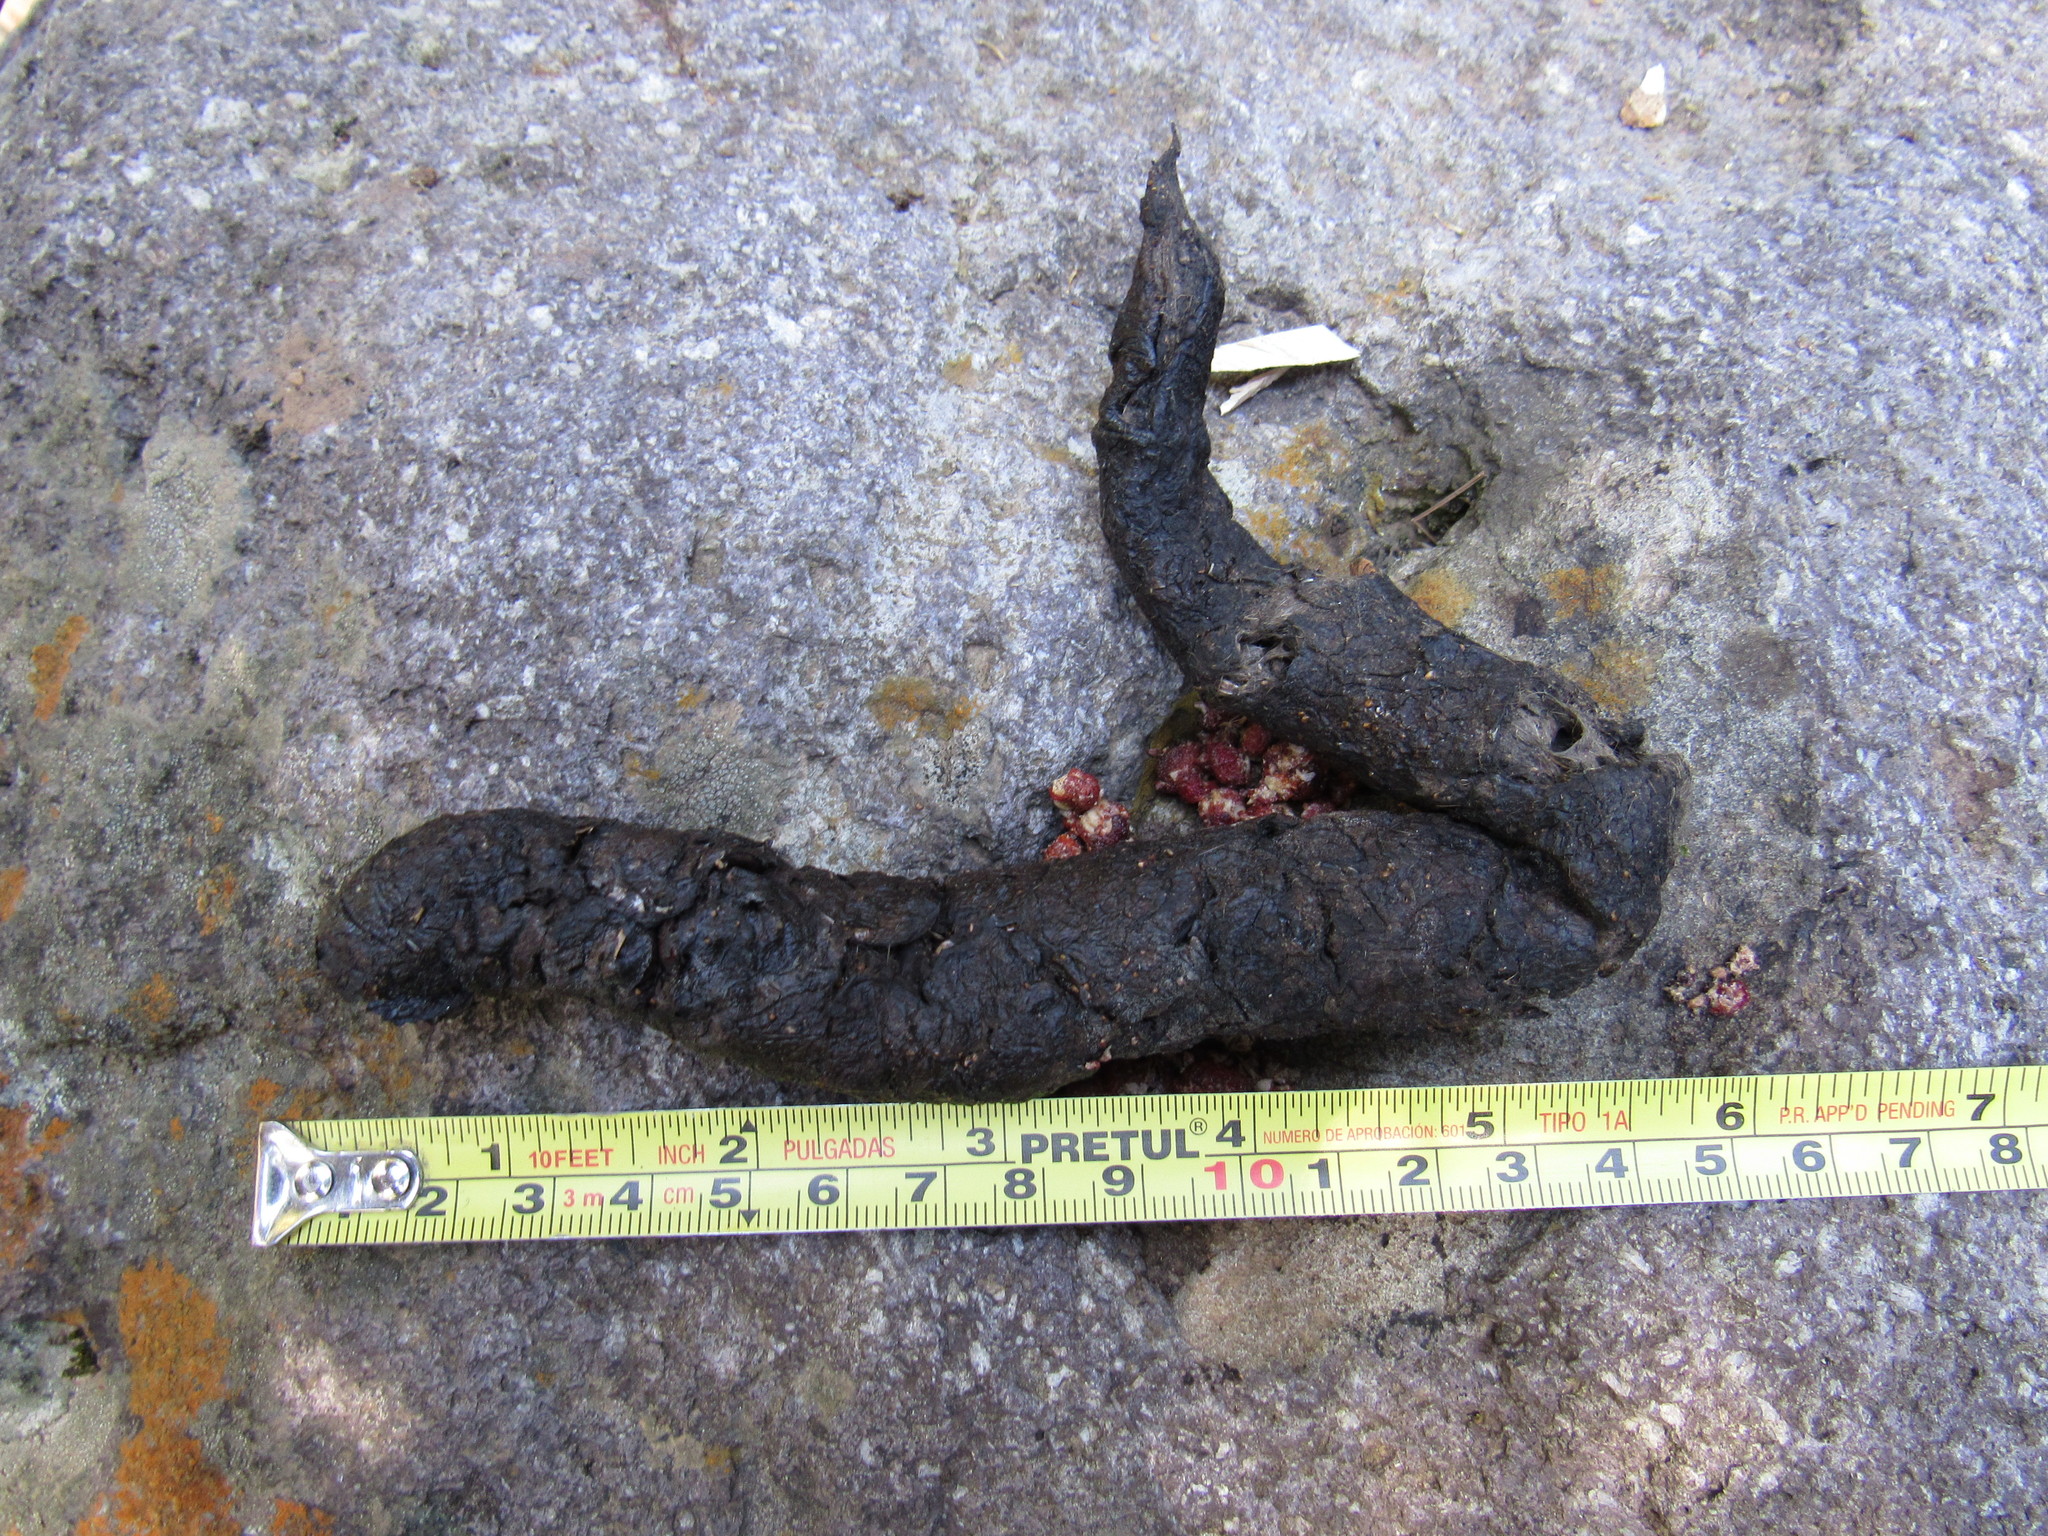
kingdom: Animalia
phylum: Chordata
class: Mammalia
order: Carnivora
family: Canidae
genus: Canis
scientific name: Canis latrans
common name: Coyote
